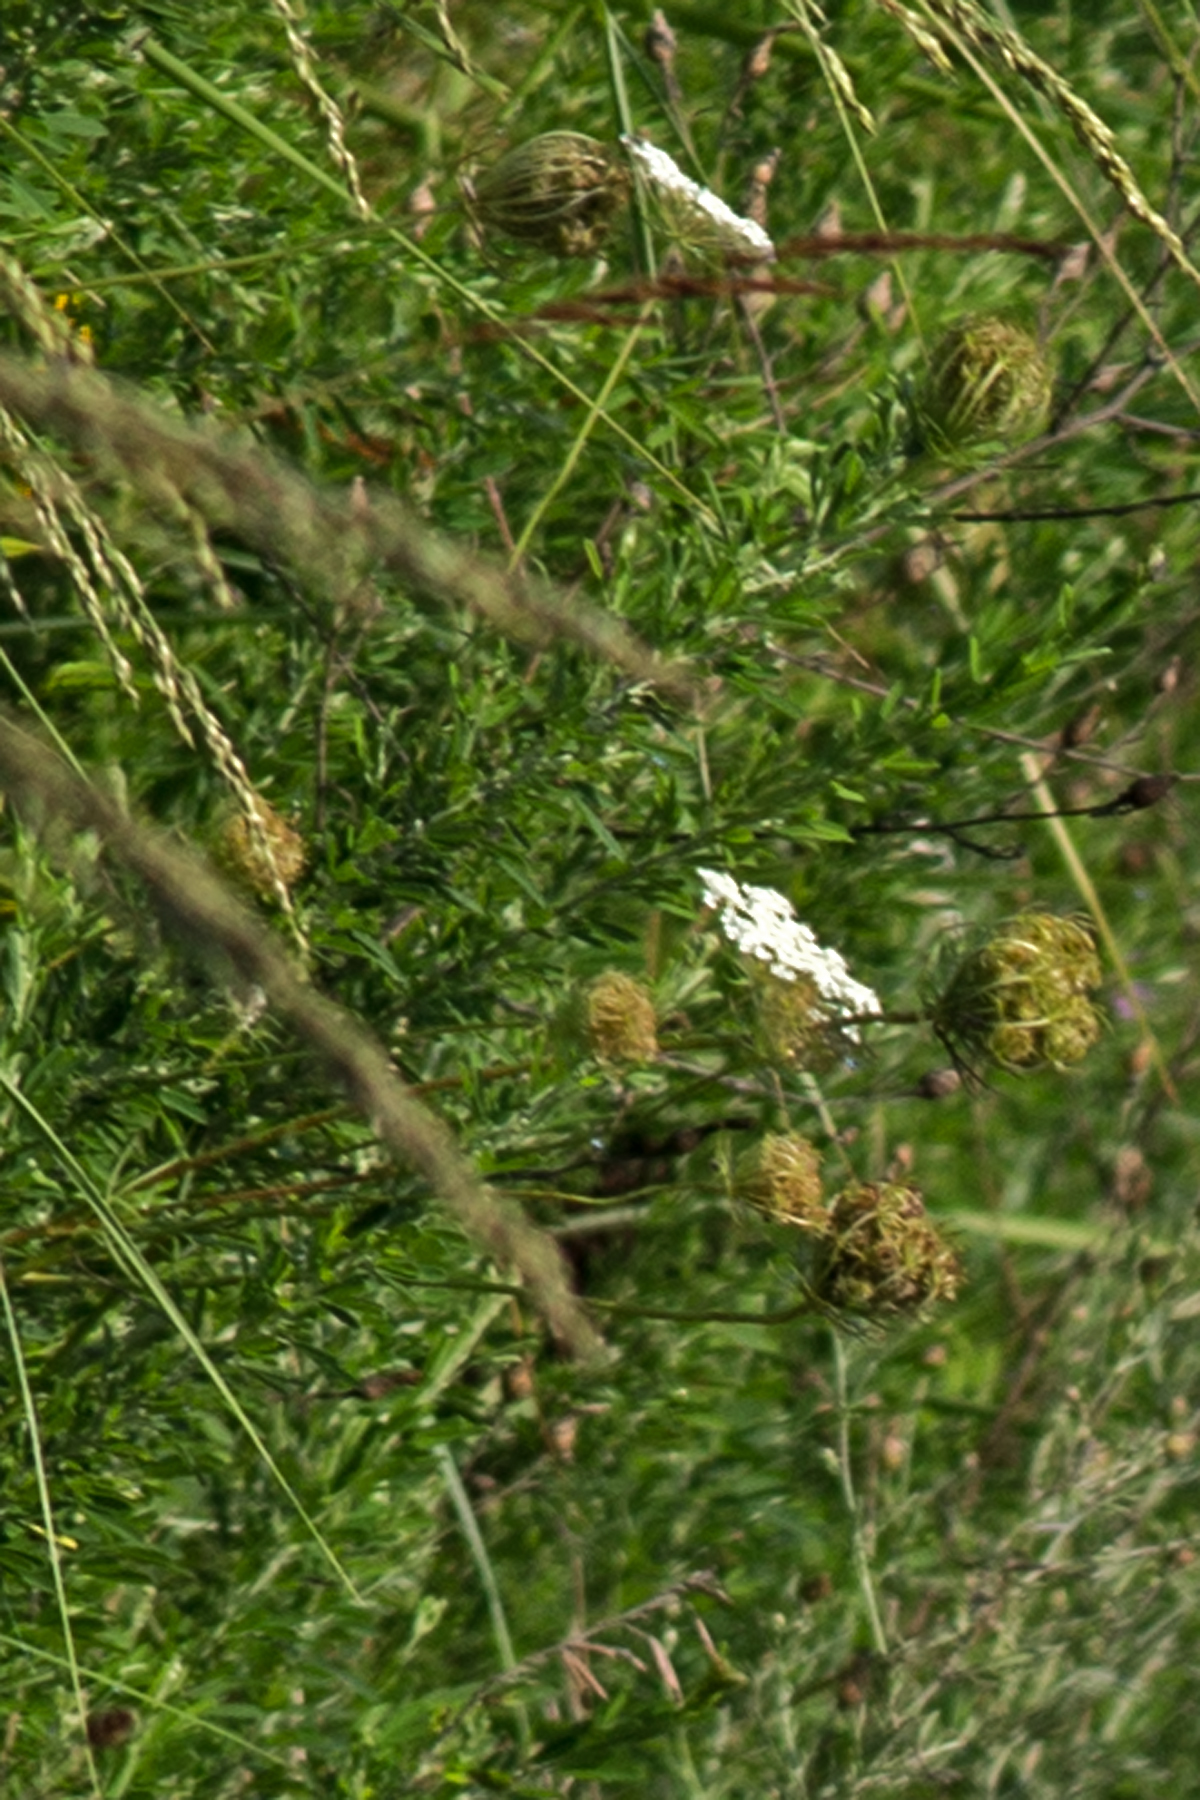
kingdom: Plantae
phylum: Tracheophyta
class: Magnoliopsida
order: Apiales
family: Apiaceae
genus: Daucus
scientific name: Daucus carota
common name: Wild carrot
